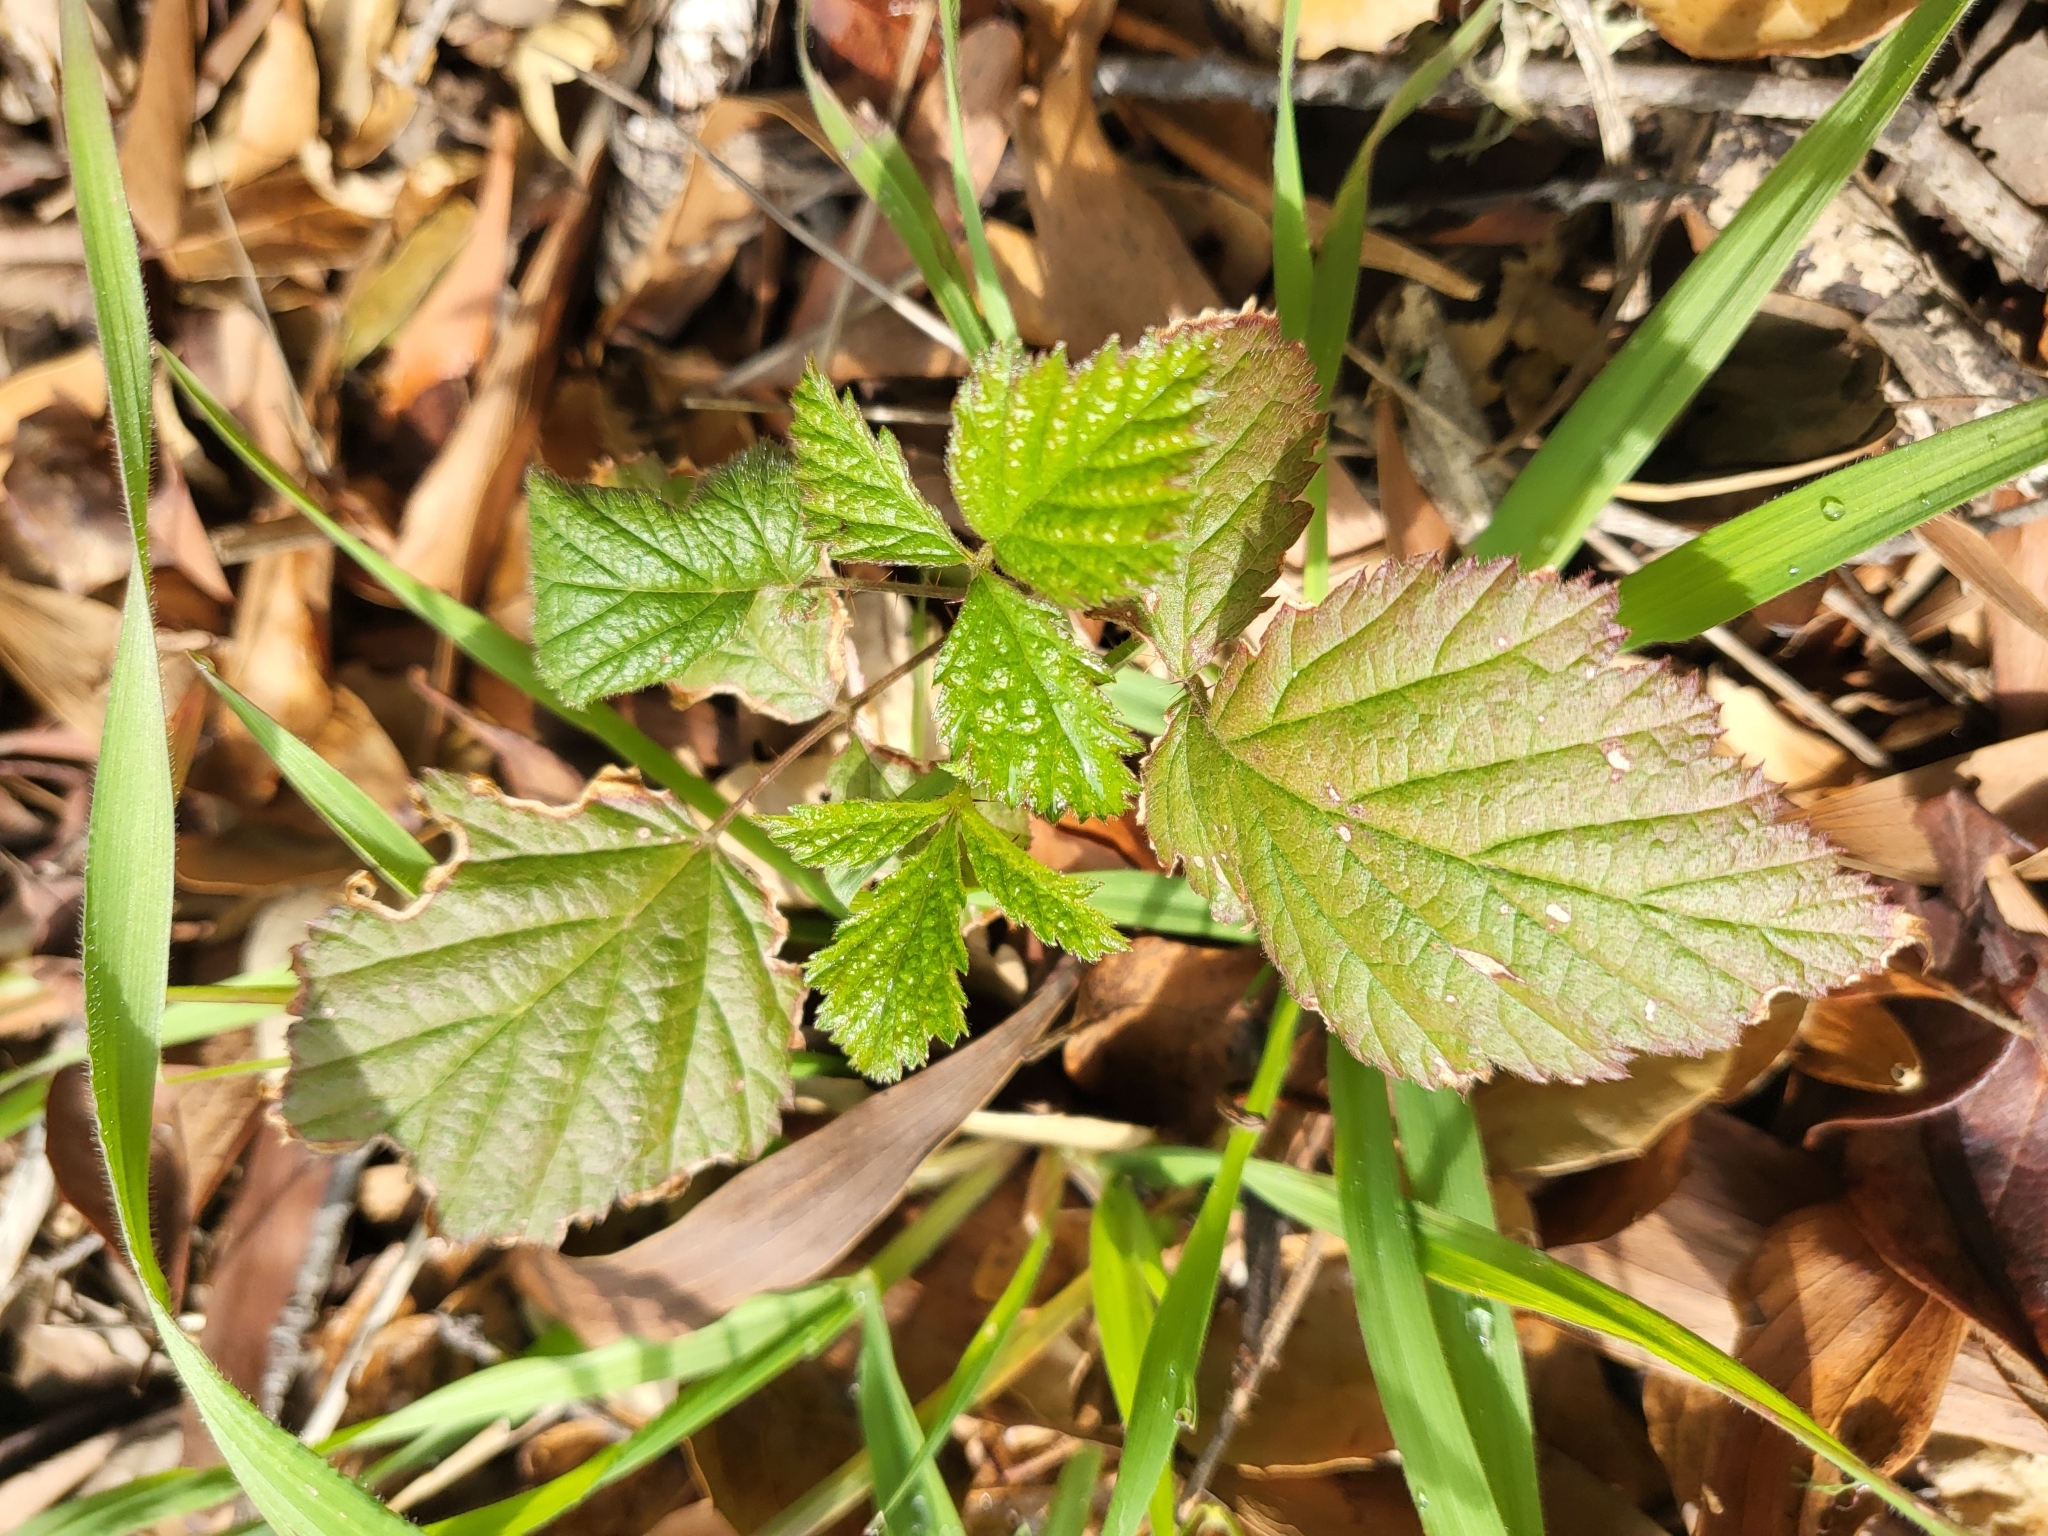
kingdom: Plantae
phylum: Tracheophyta
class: Magnoliopsida
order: Rosales
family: Rosaceae
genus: Rubus
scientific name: Rubus ursinus
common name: Pacific blackberry
